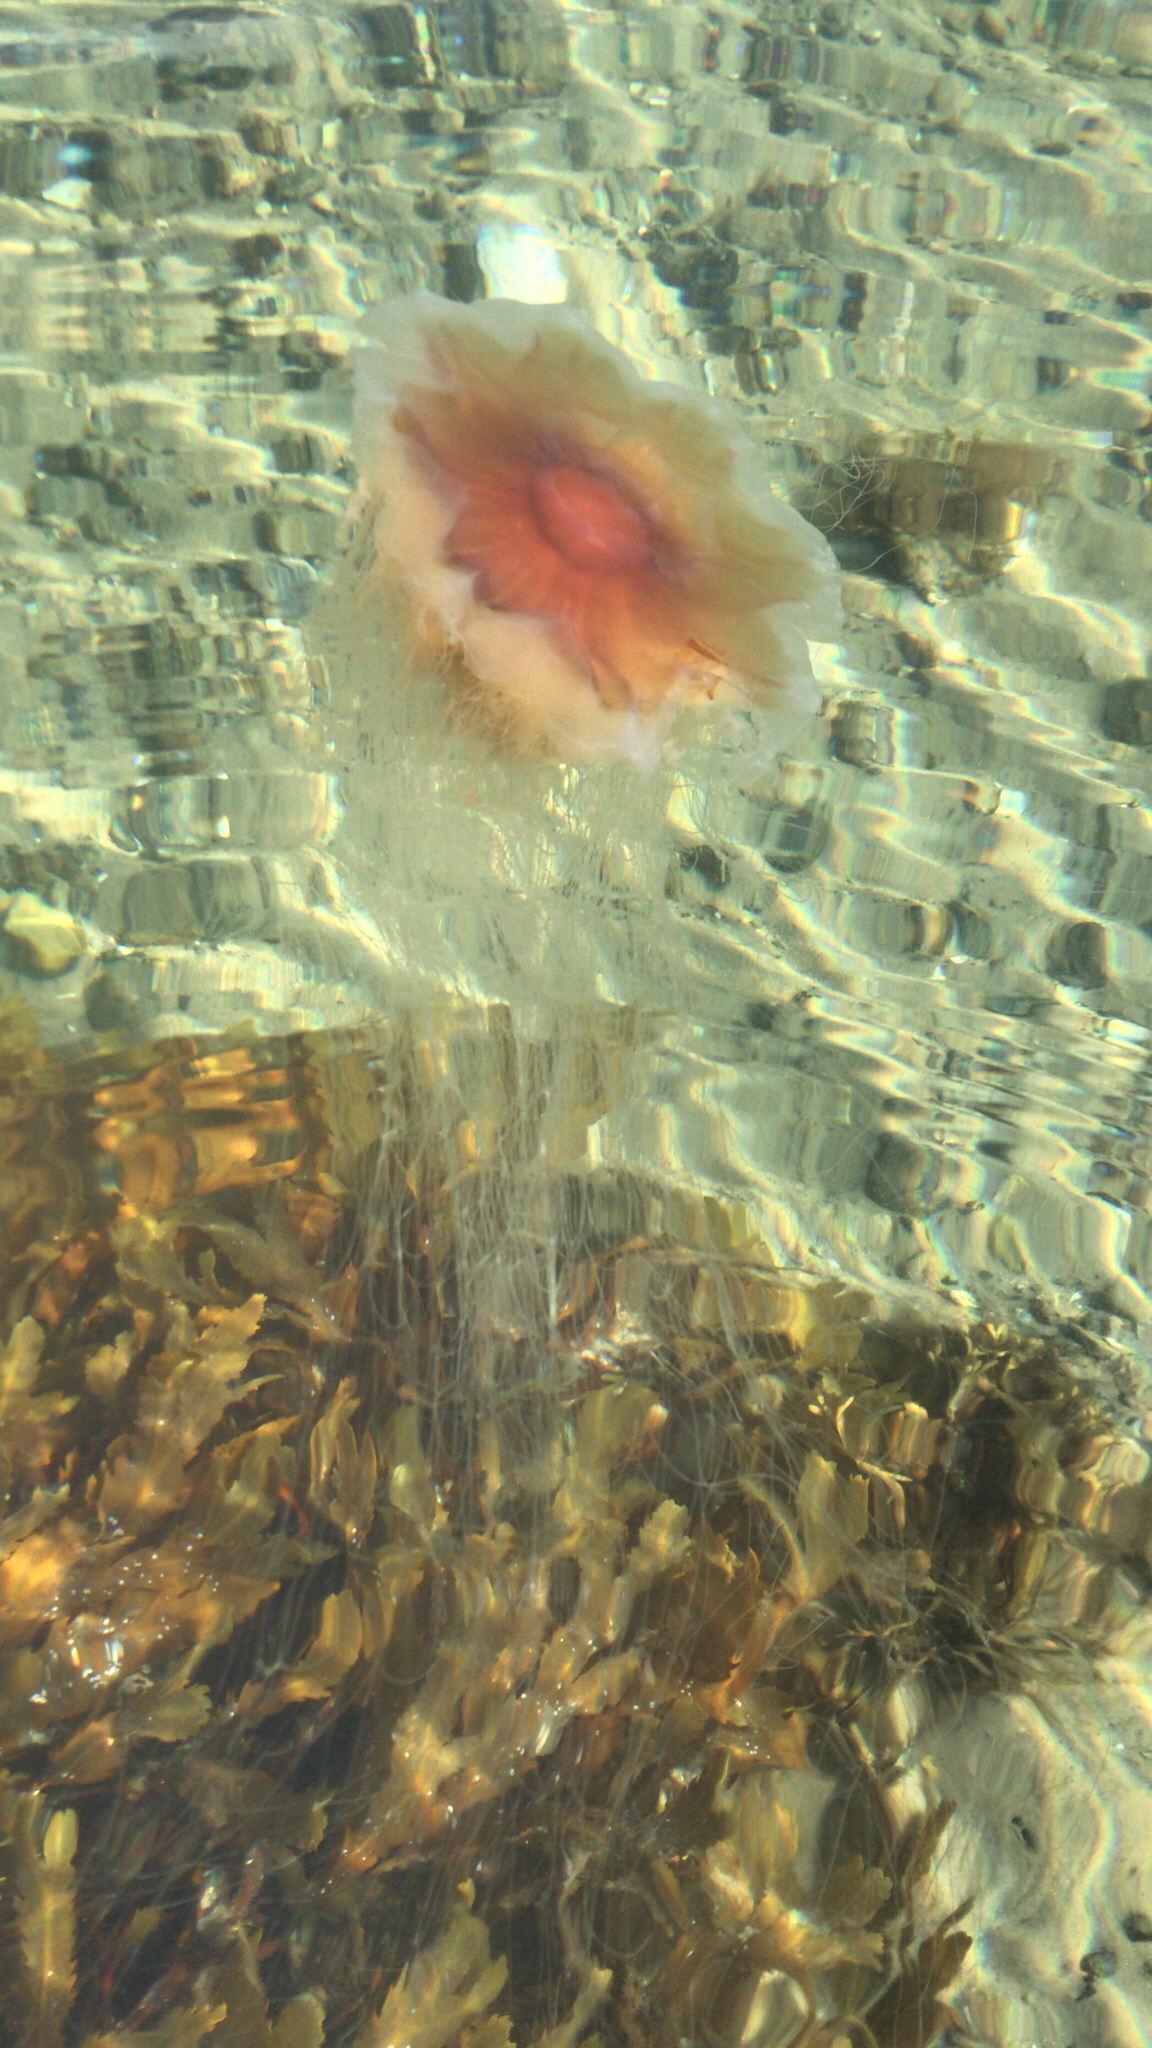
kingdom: Animalia
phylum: Cnidaria
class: Scyphozoa
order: Semaeostomeae
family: Cyaneidae
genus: Cyanea
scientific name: Cyanea capillata
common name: Lion's mane jellyfish
